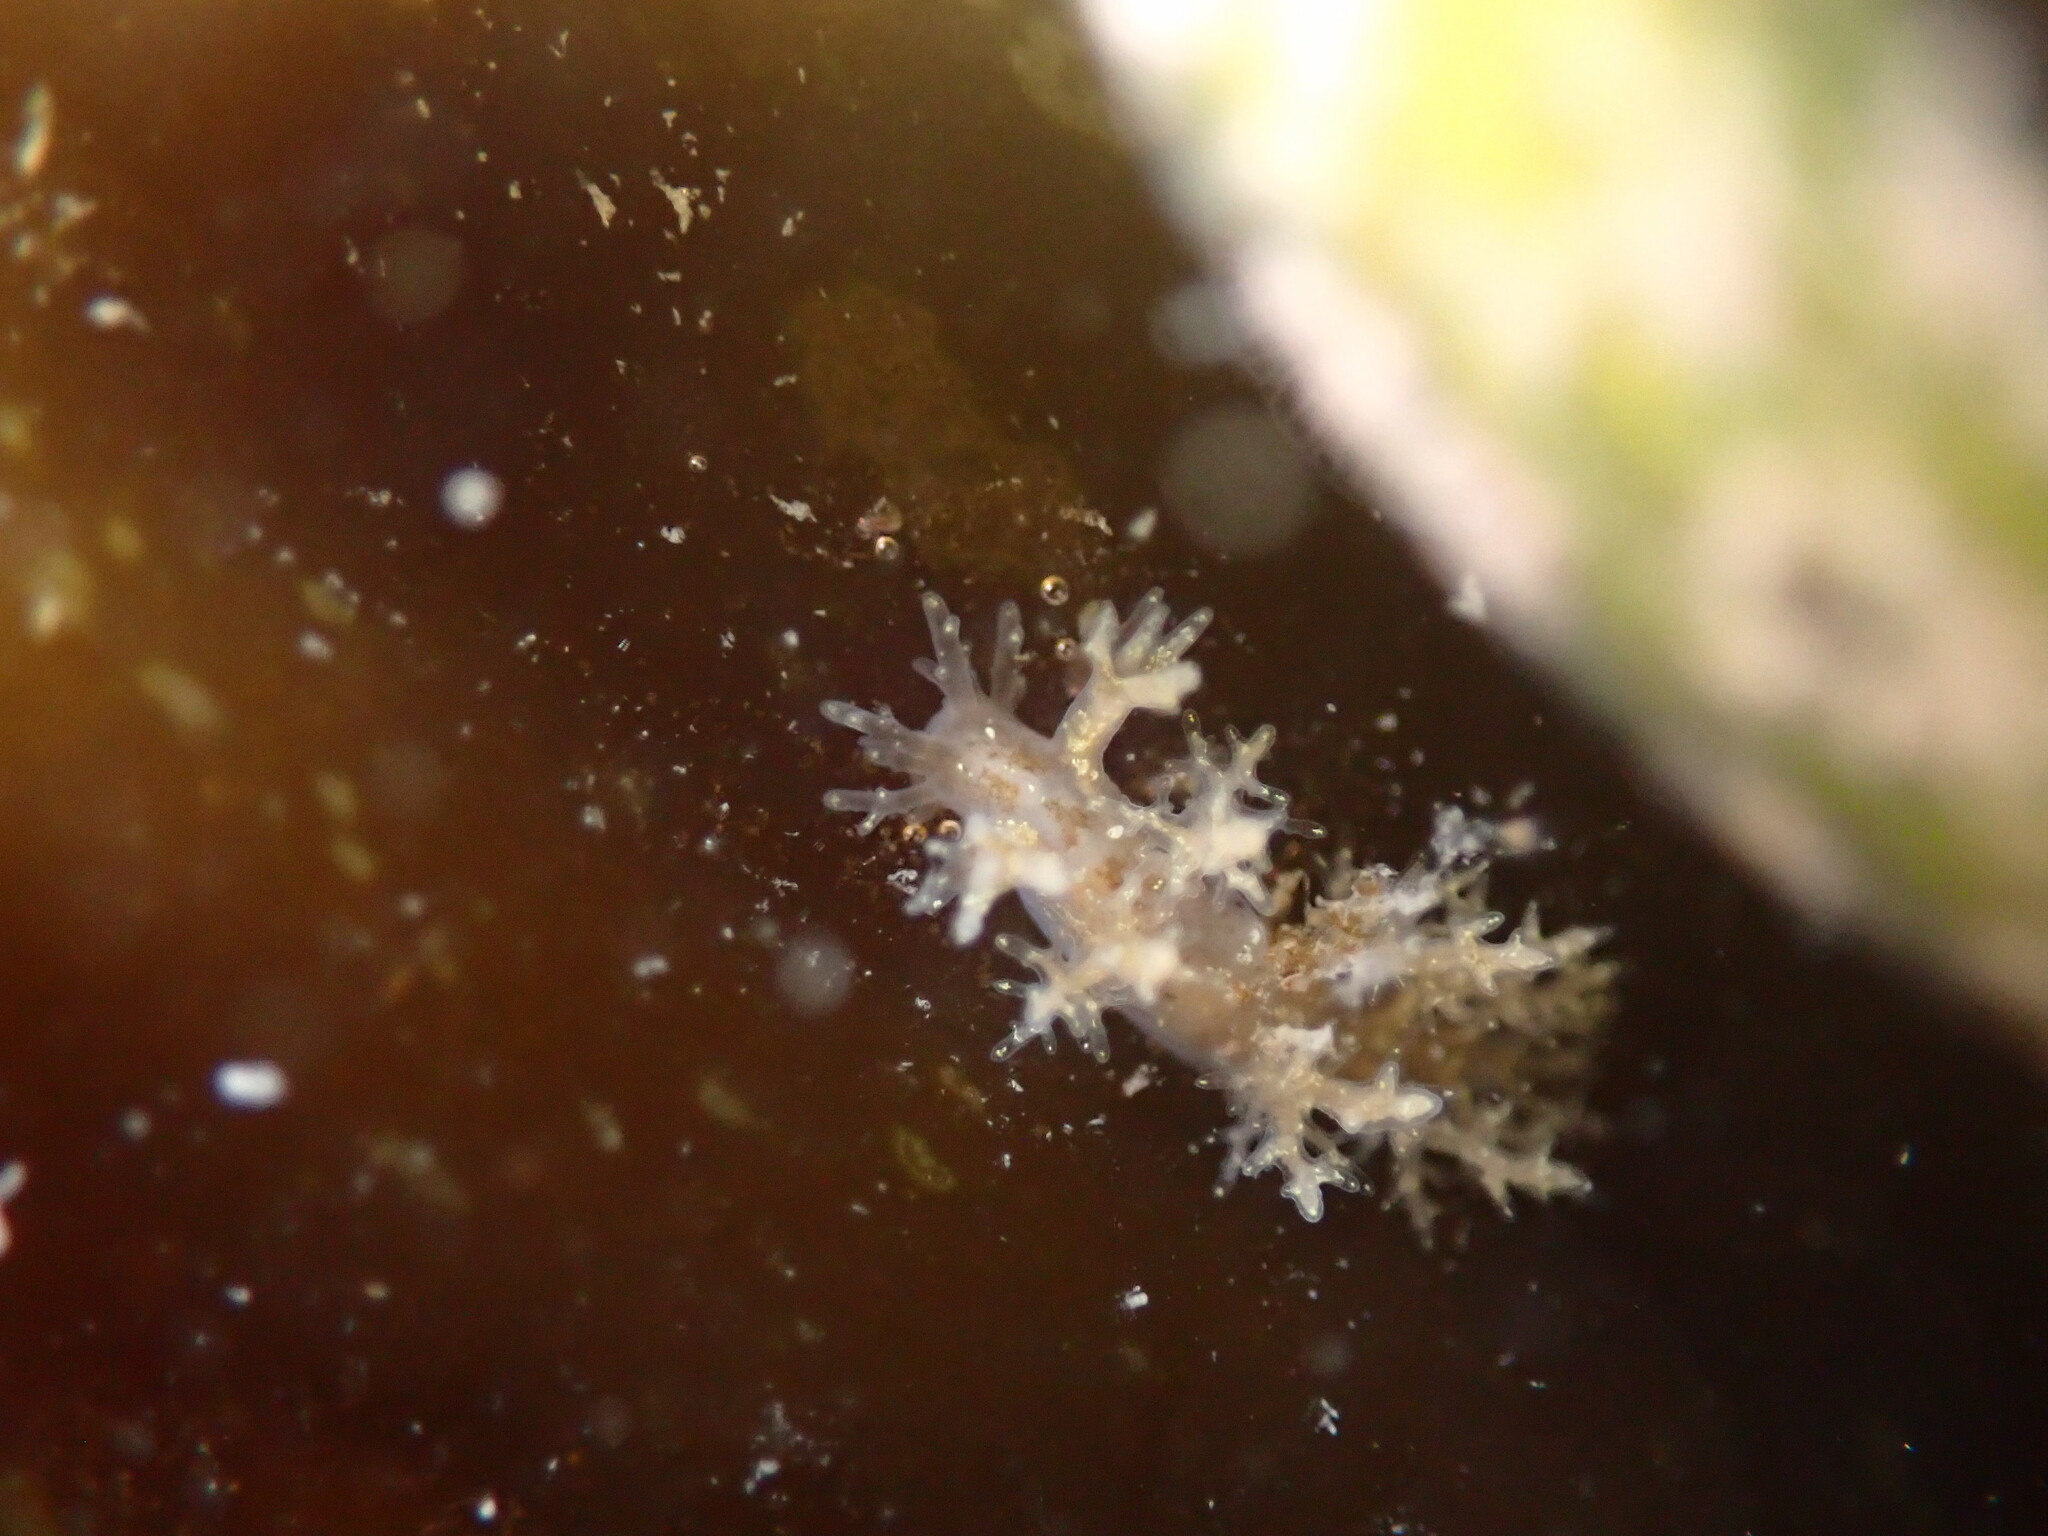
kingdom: Animalia
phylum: Mollusca
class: Gastropoda
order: Nudibranchia
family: Dendronotidae
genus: Dendronotus
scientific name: Dendronotus venustus
